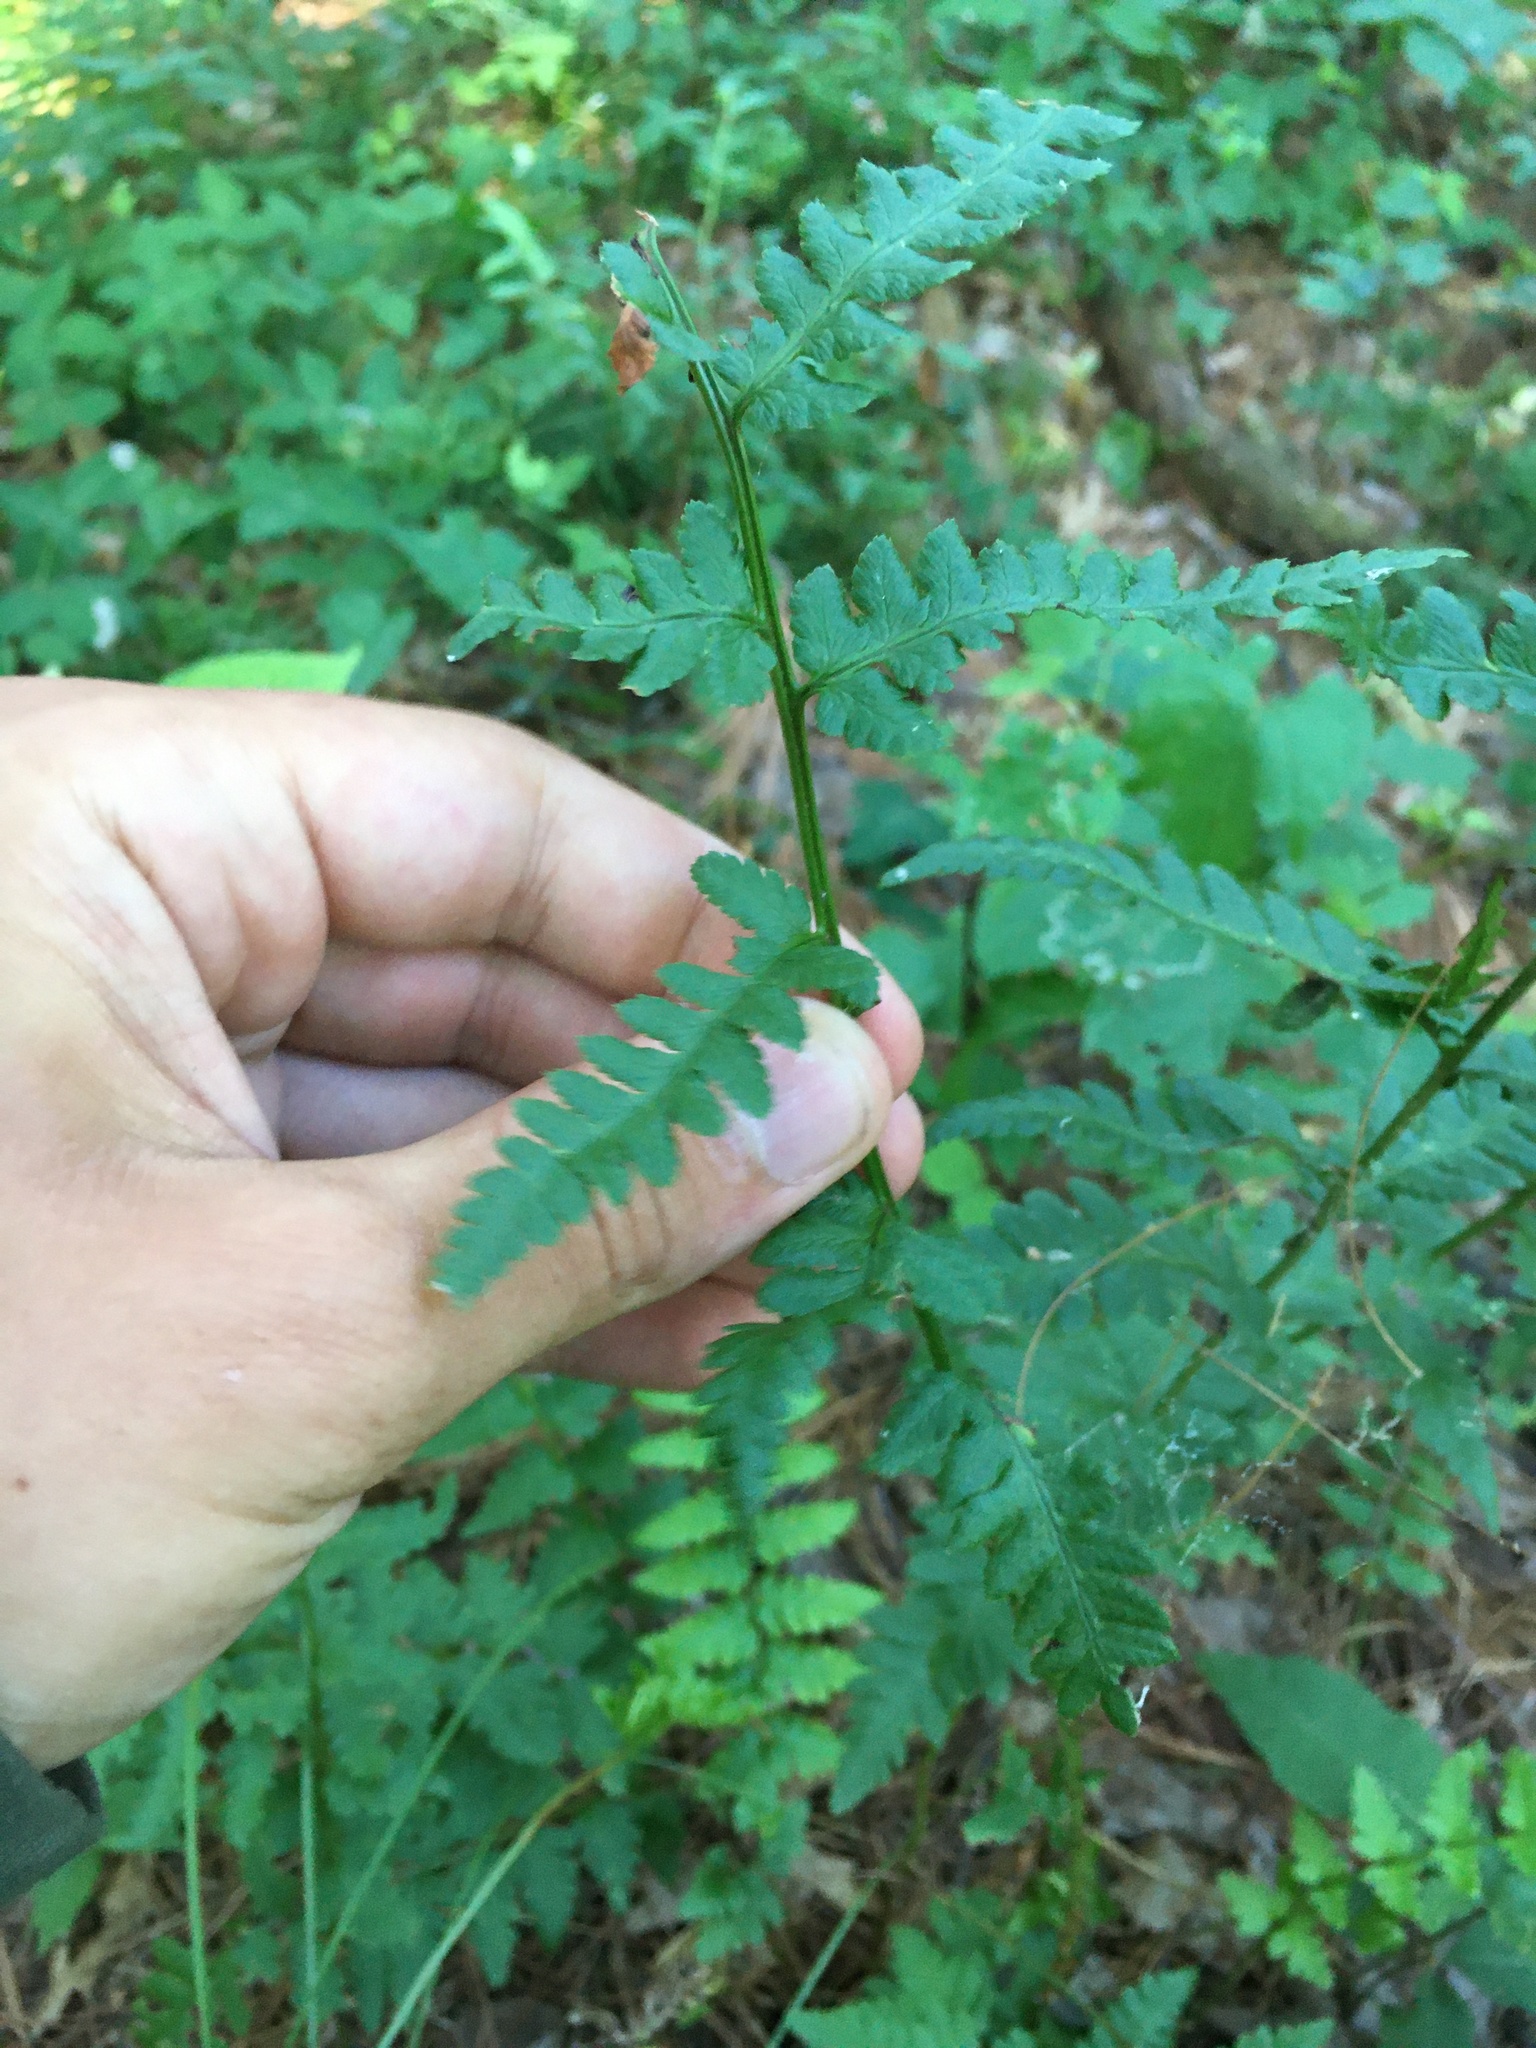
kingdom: Plantae
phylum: Tracheophyta
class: Polypodiopsida
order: Polypodiales
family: Dryopteridaceae
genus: Dryopteris
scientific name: Dryopteris cristata
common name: Crested wood fern
